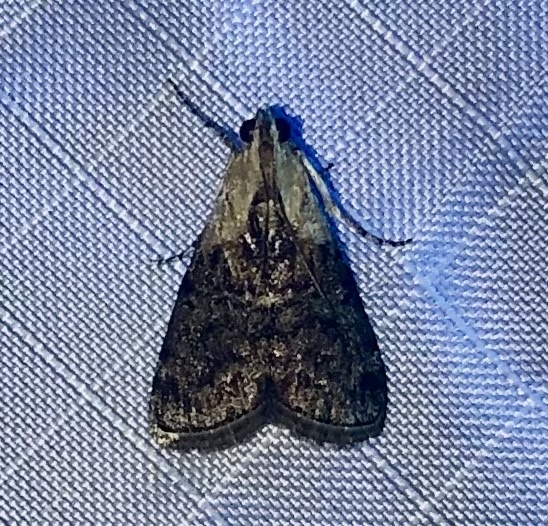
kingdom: Animalia
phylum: Arthropoda
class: Insecta
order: Lepidoptera
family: Pyralidae
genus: Pococera
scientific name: Pococera expandens
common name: Striped oak webworm moth
